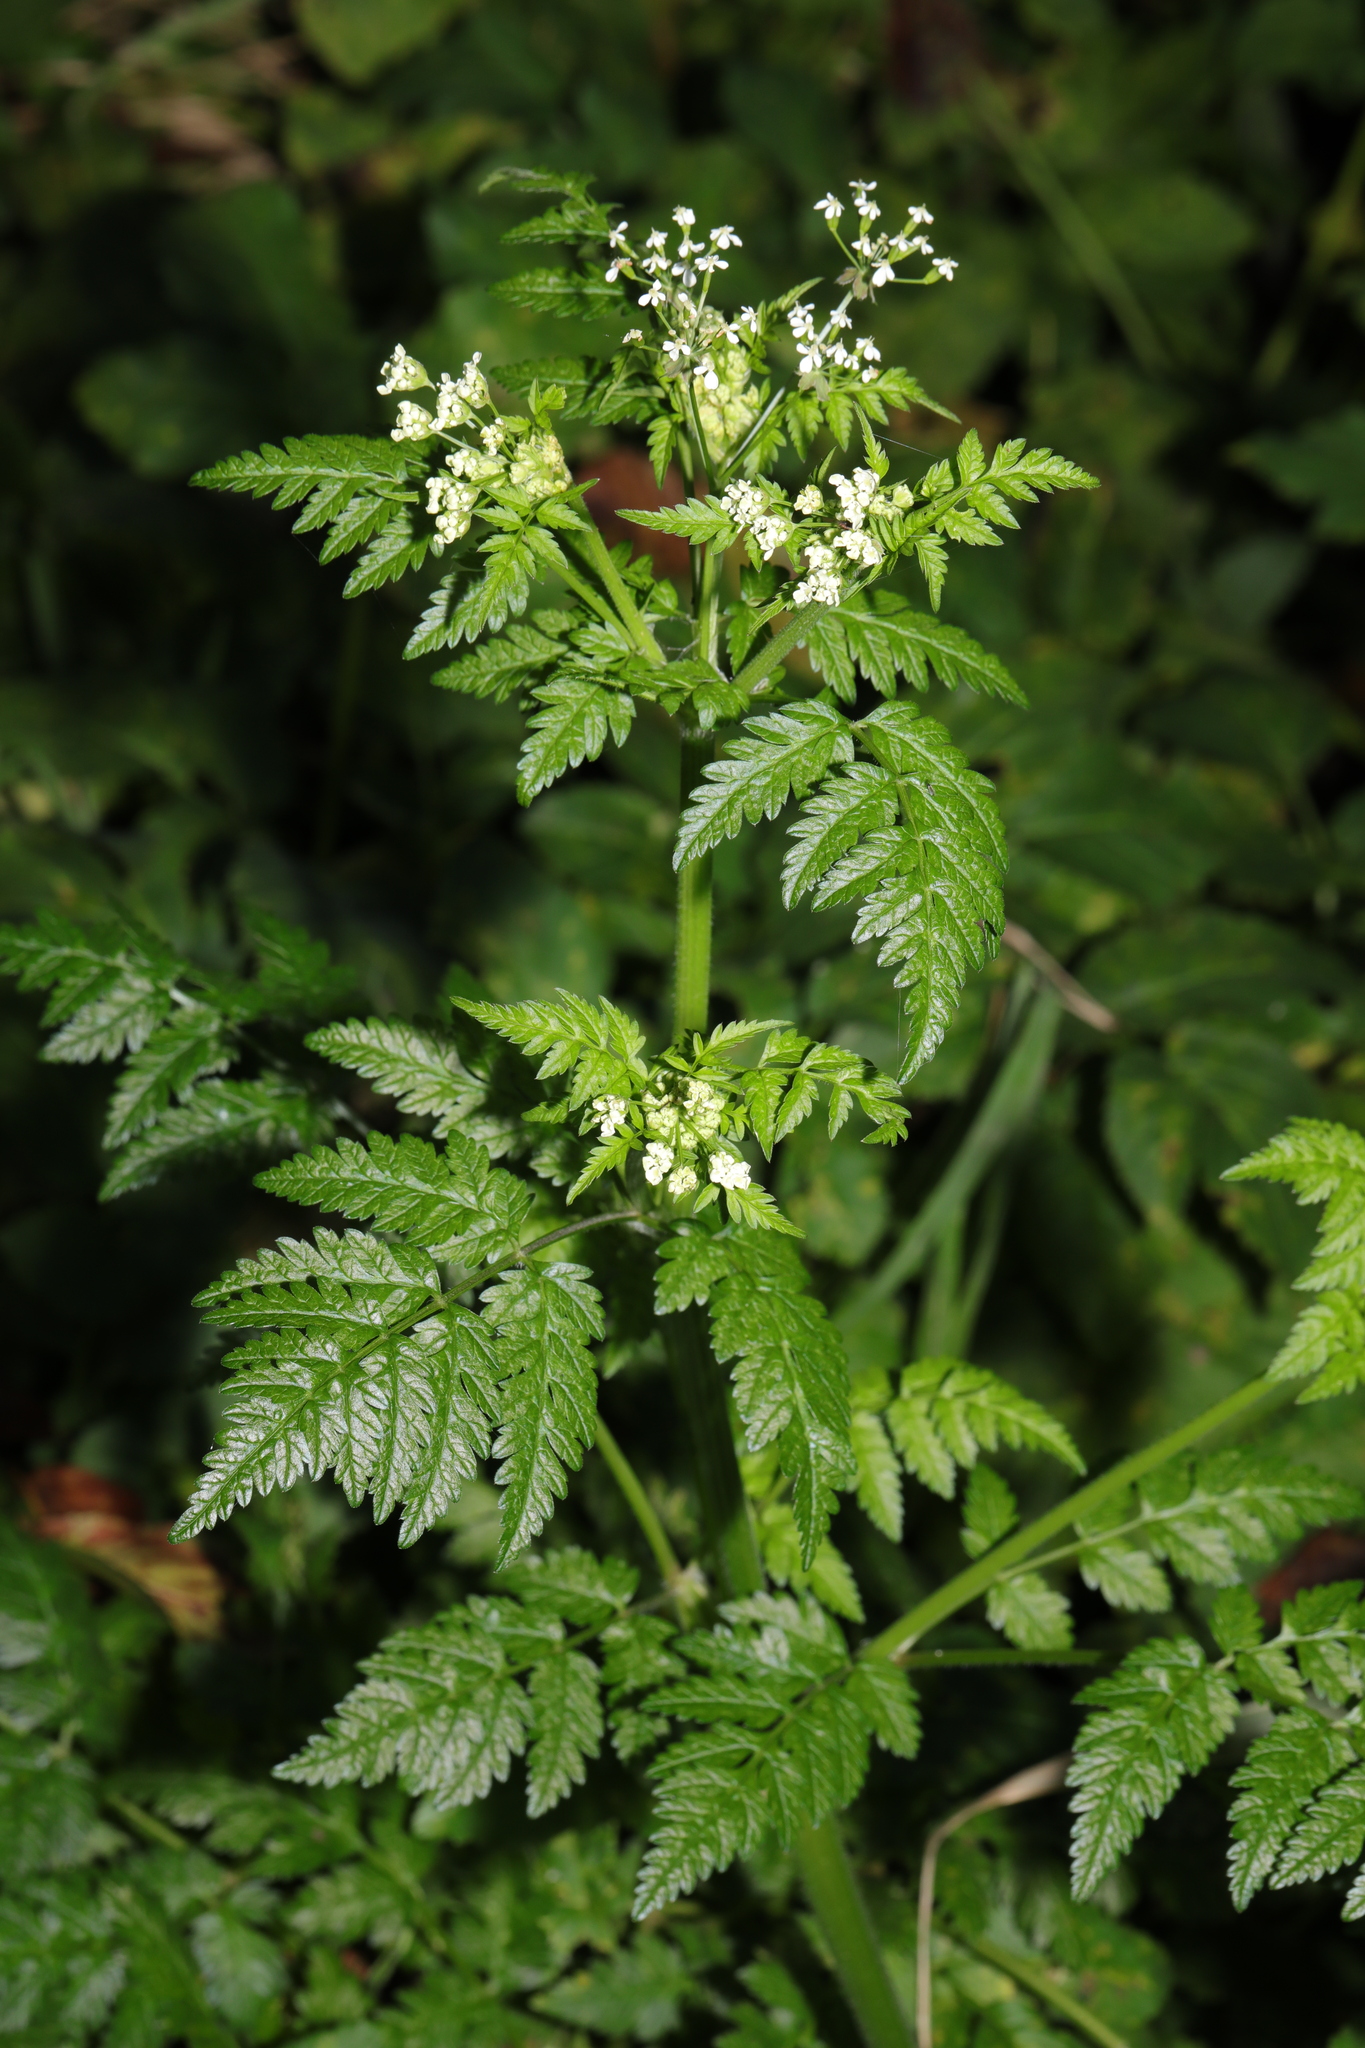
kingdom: Plantae
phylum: Tracheophyta
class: Magnoliopsida
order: Apiales
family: Apiaceae
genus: Anthriscus
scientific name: Anthriscus sylvestris
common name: Cow parsley
